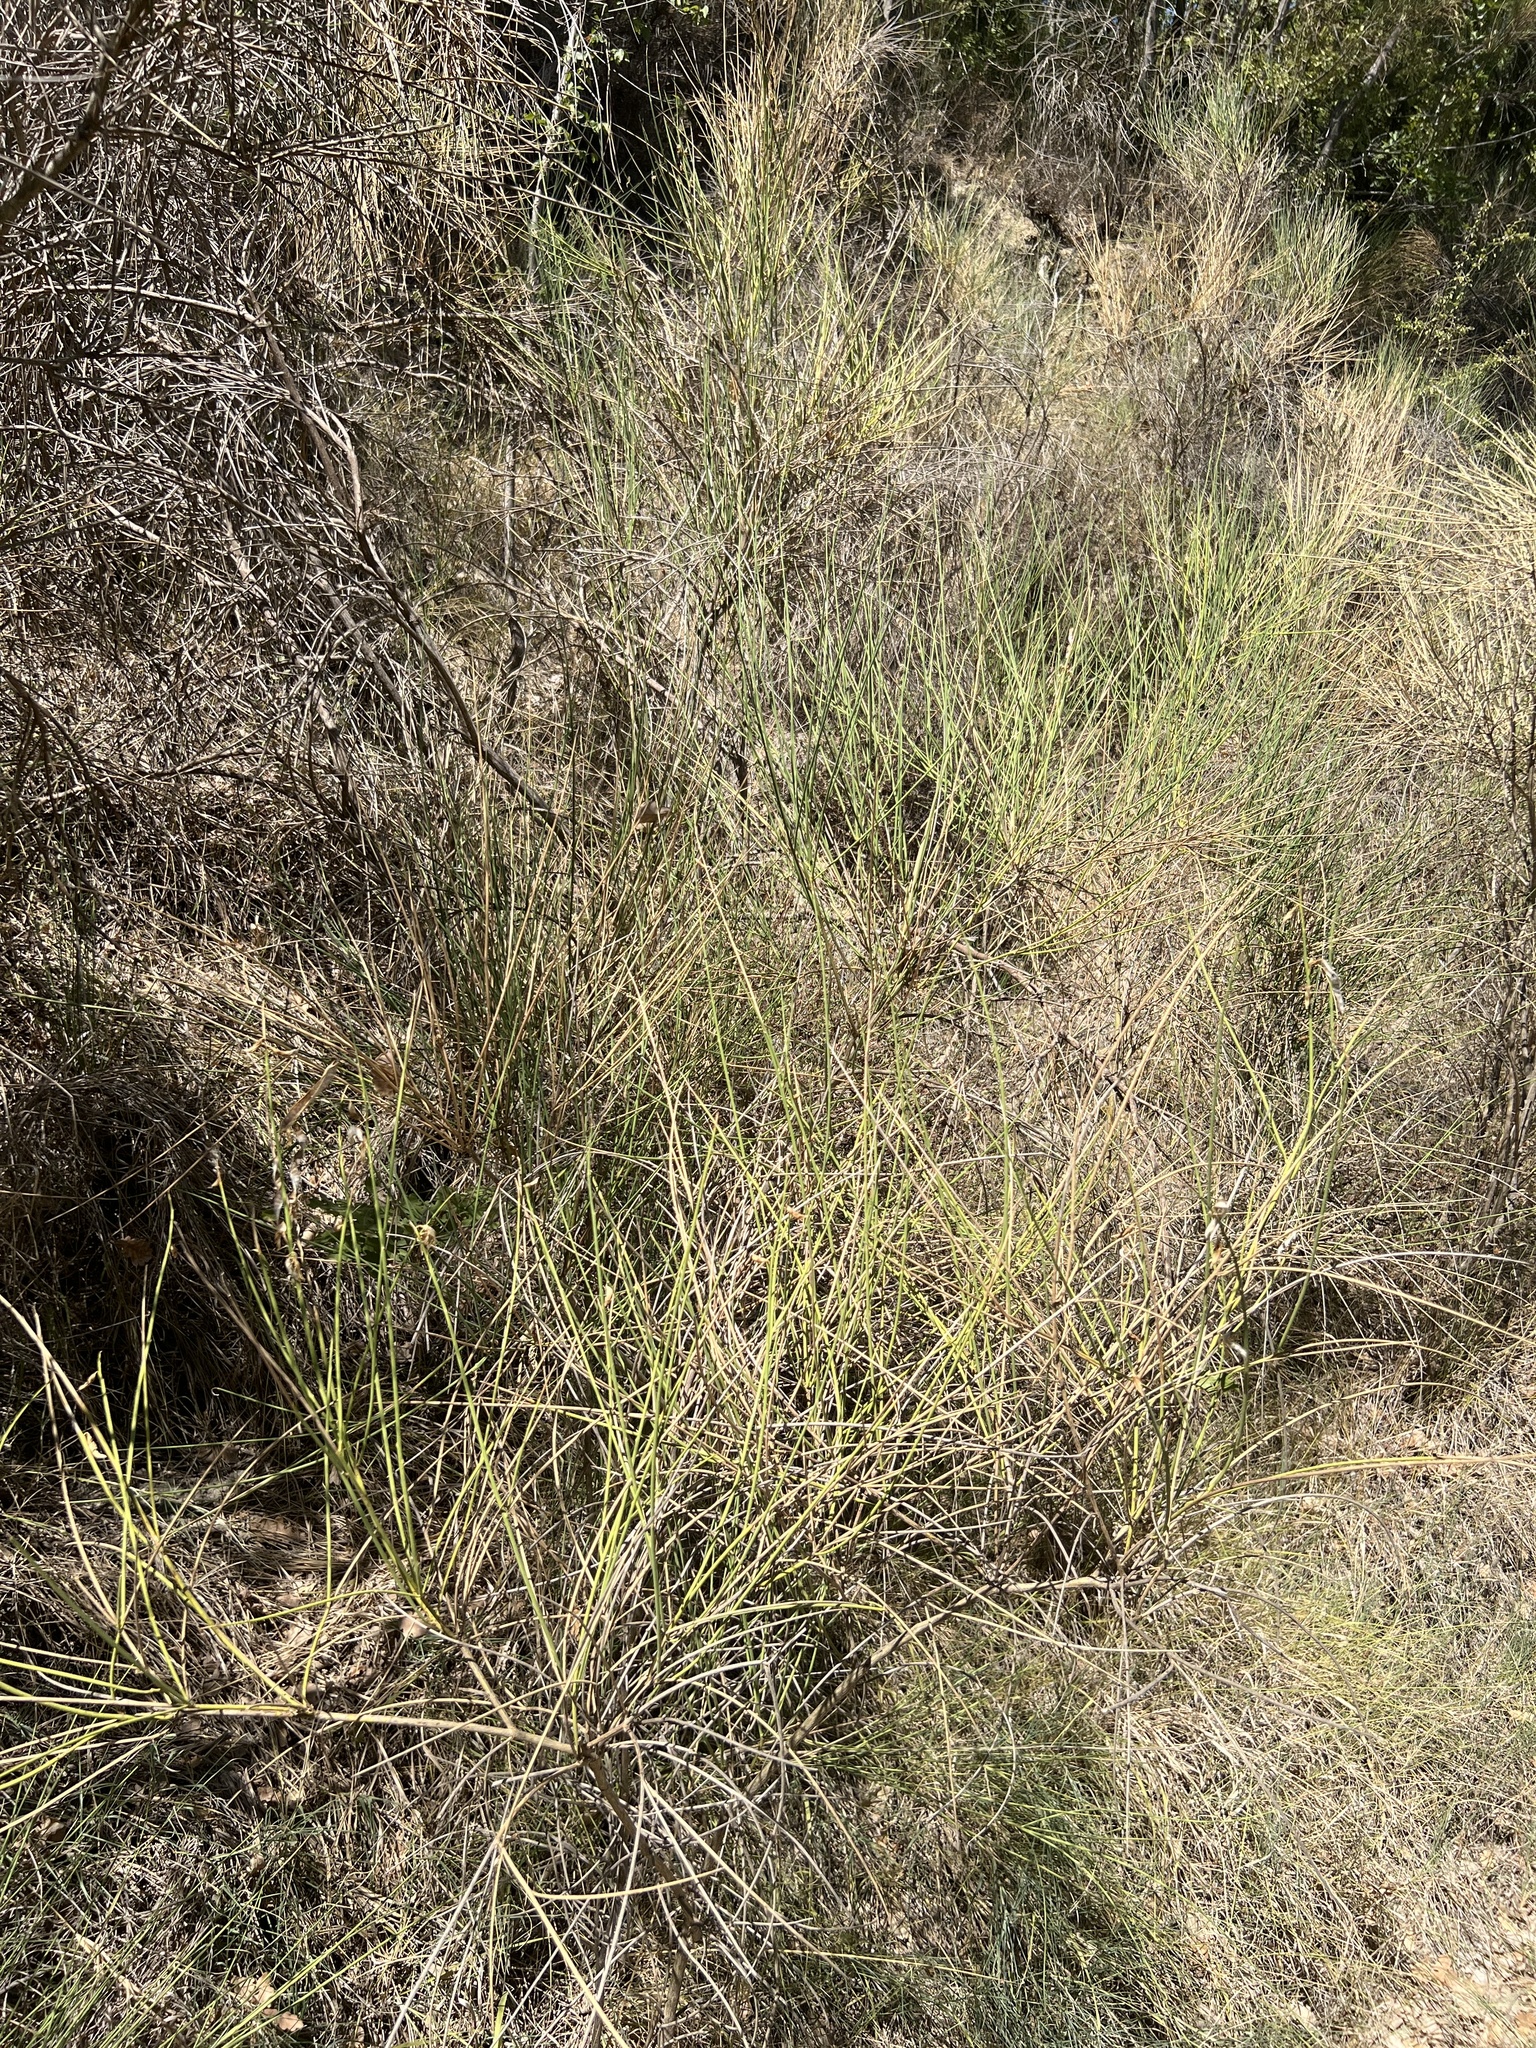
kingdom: Plantae
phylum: Tracheophyta
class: Magnoliopsida
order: Fabales
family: Fabaceae
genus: Spartium
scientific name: Spartium junceum
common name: Spanish broom
